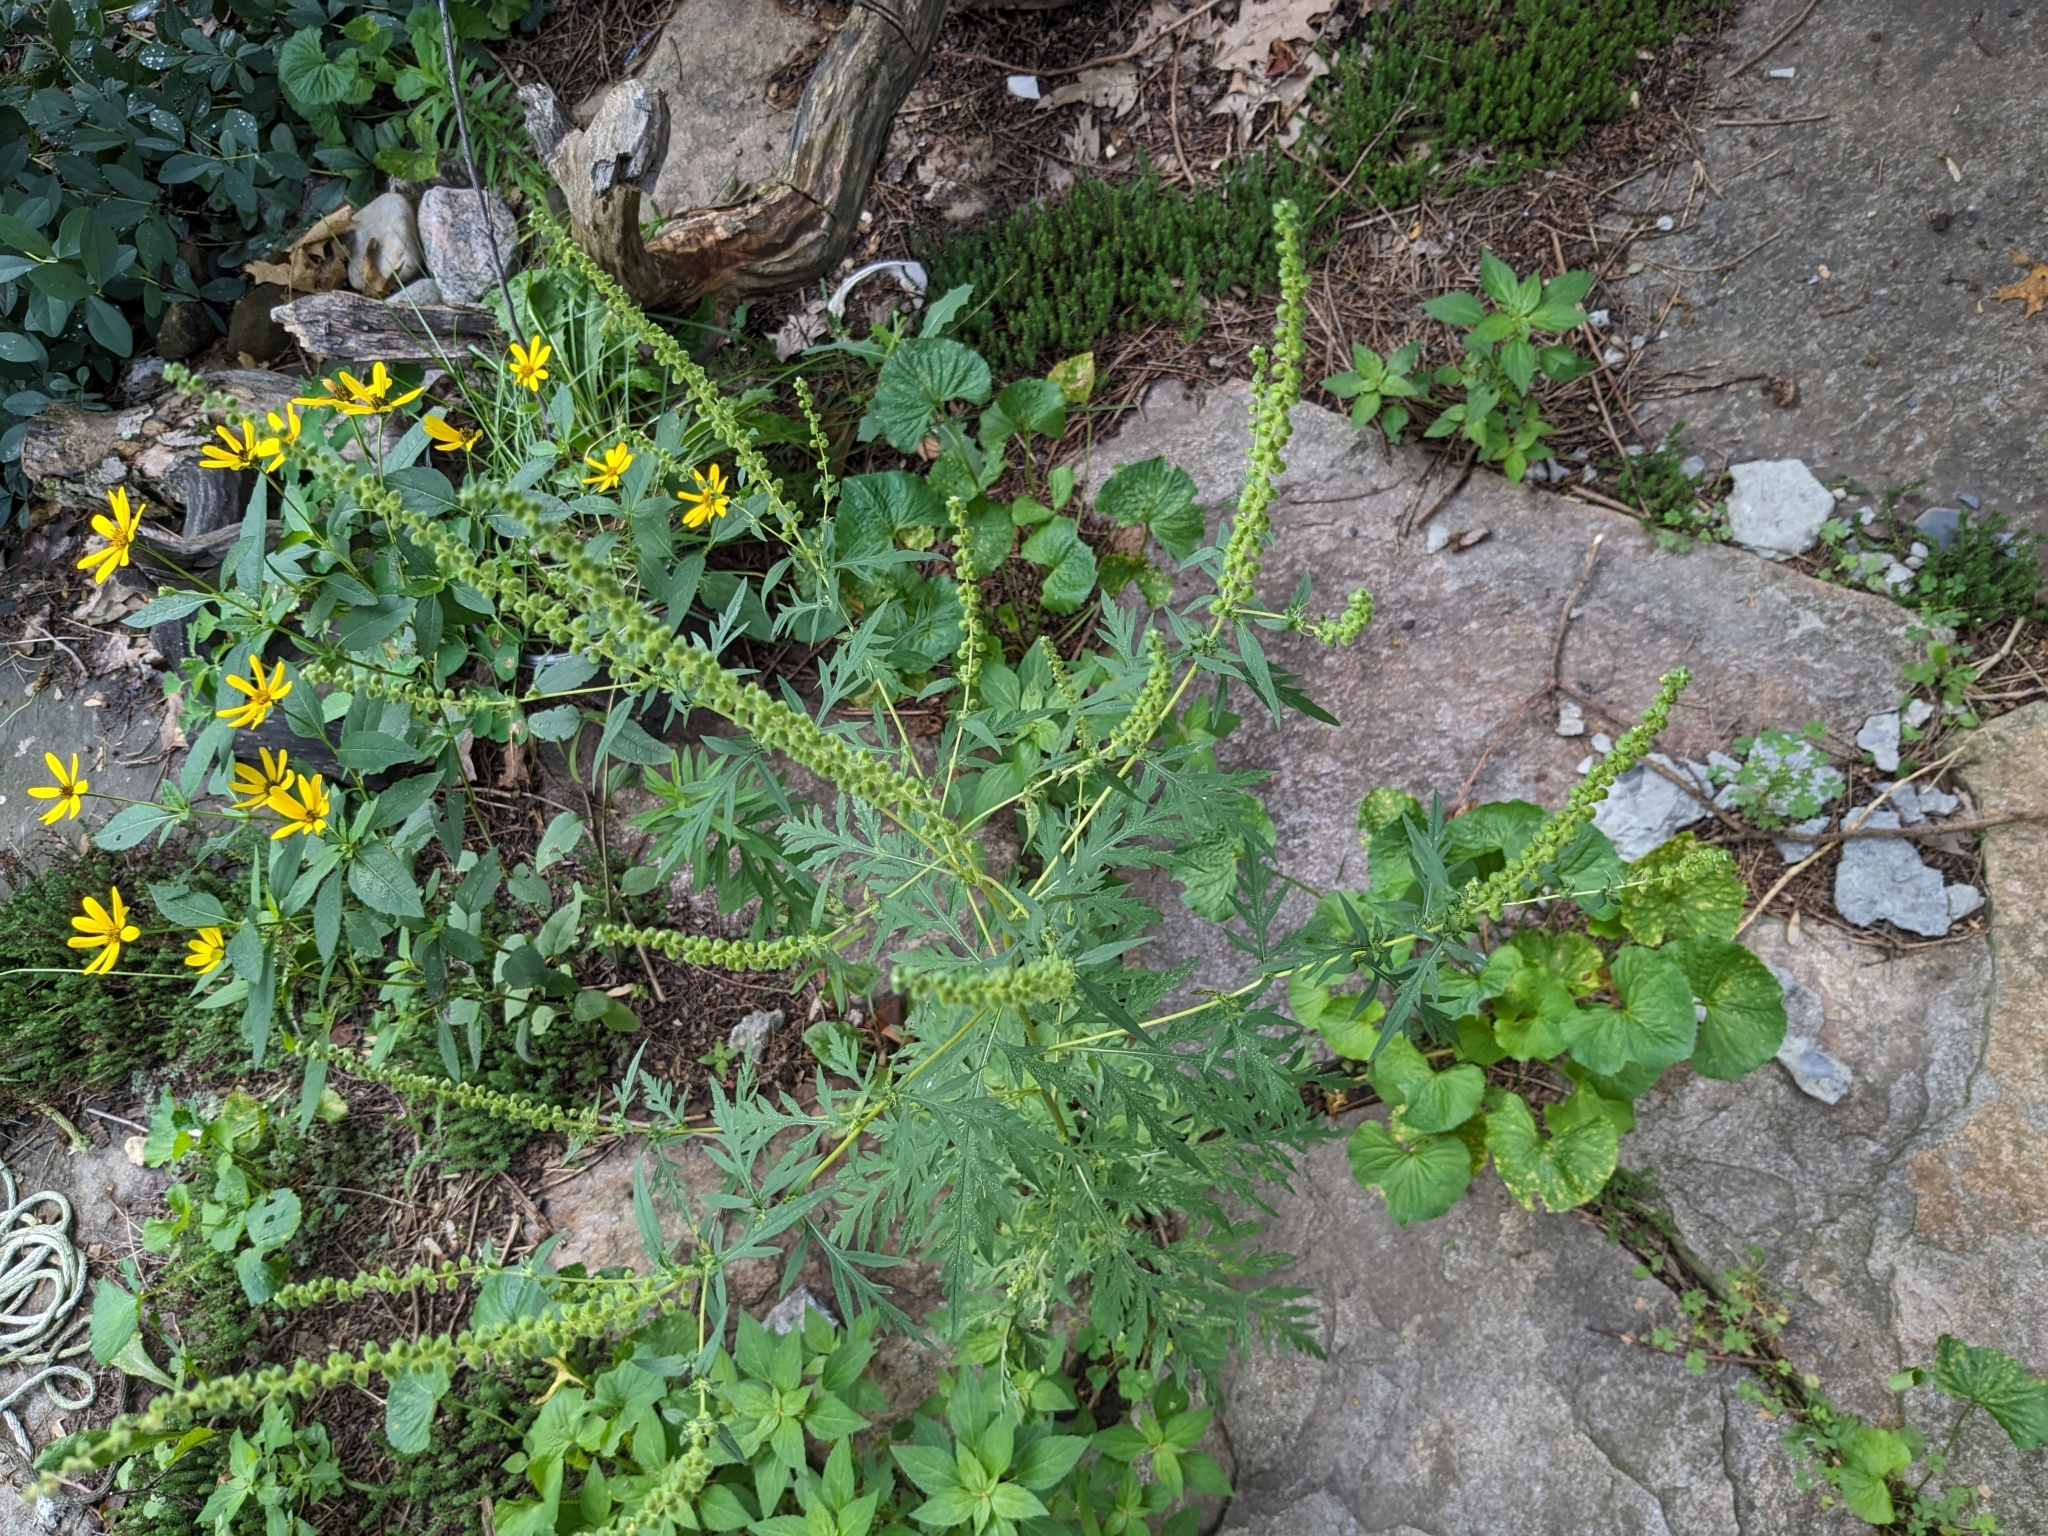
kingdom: Plantae
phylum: Tracheophyta
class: Magnoliopsida
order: Asterales
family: Asteraceae
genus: Ambrosia
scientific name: Ambrosia artemisiifolia
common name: Annual ragweed
